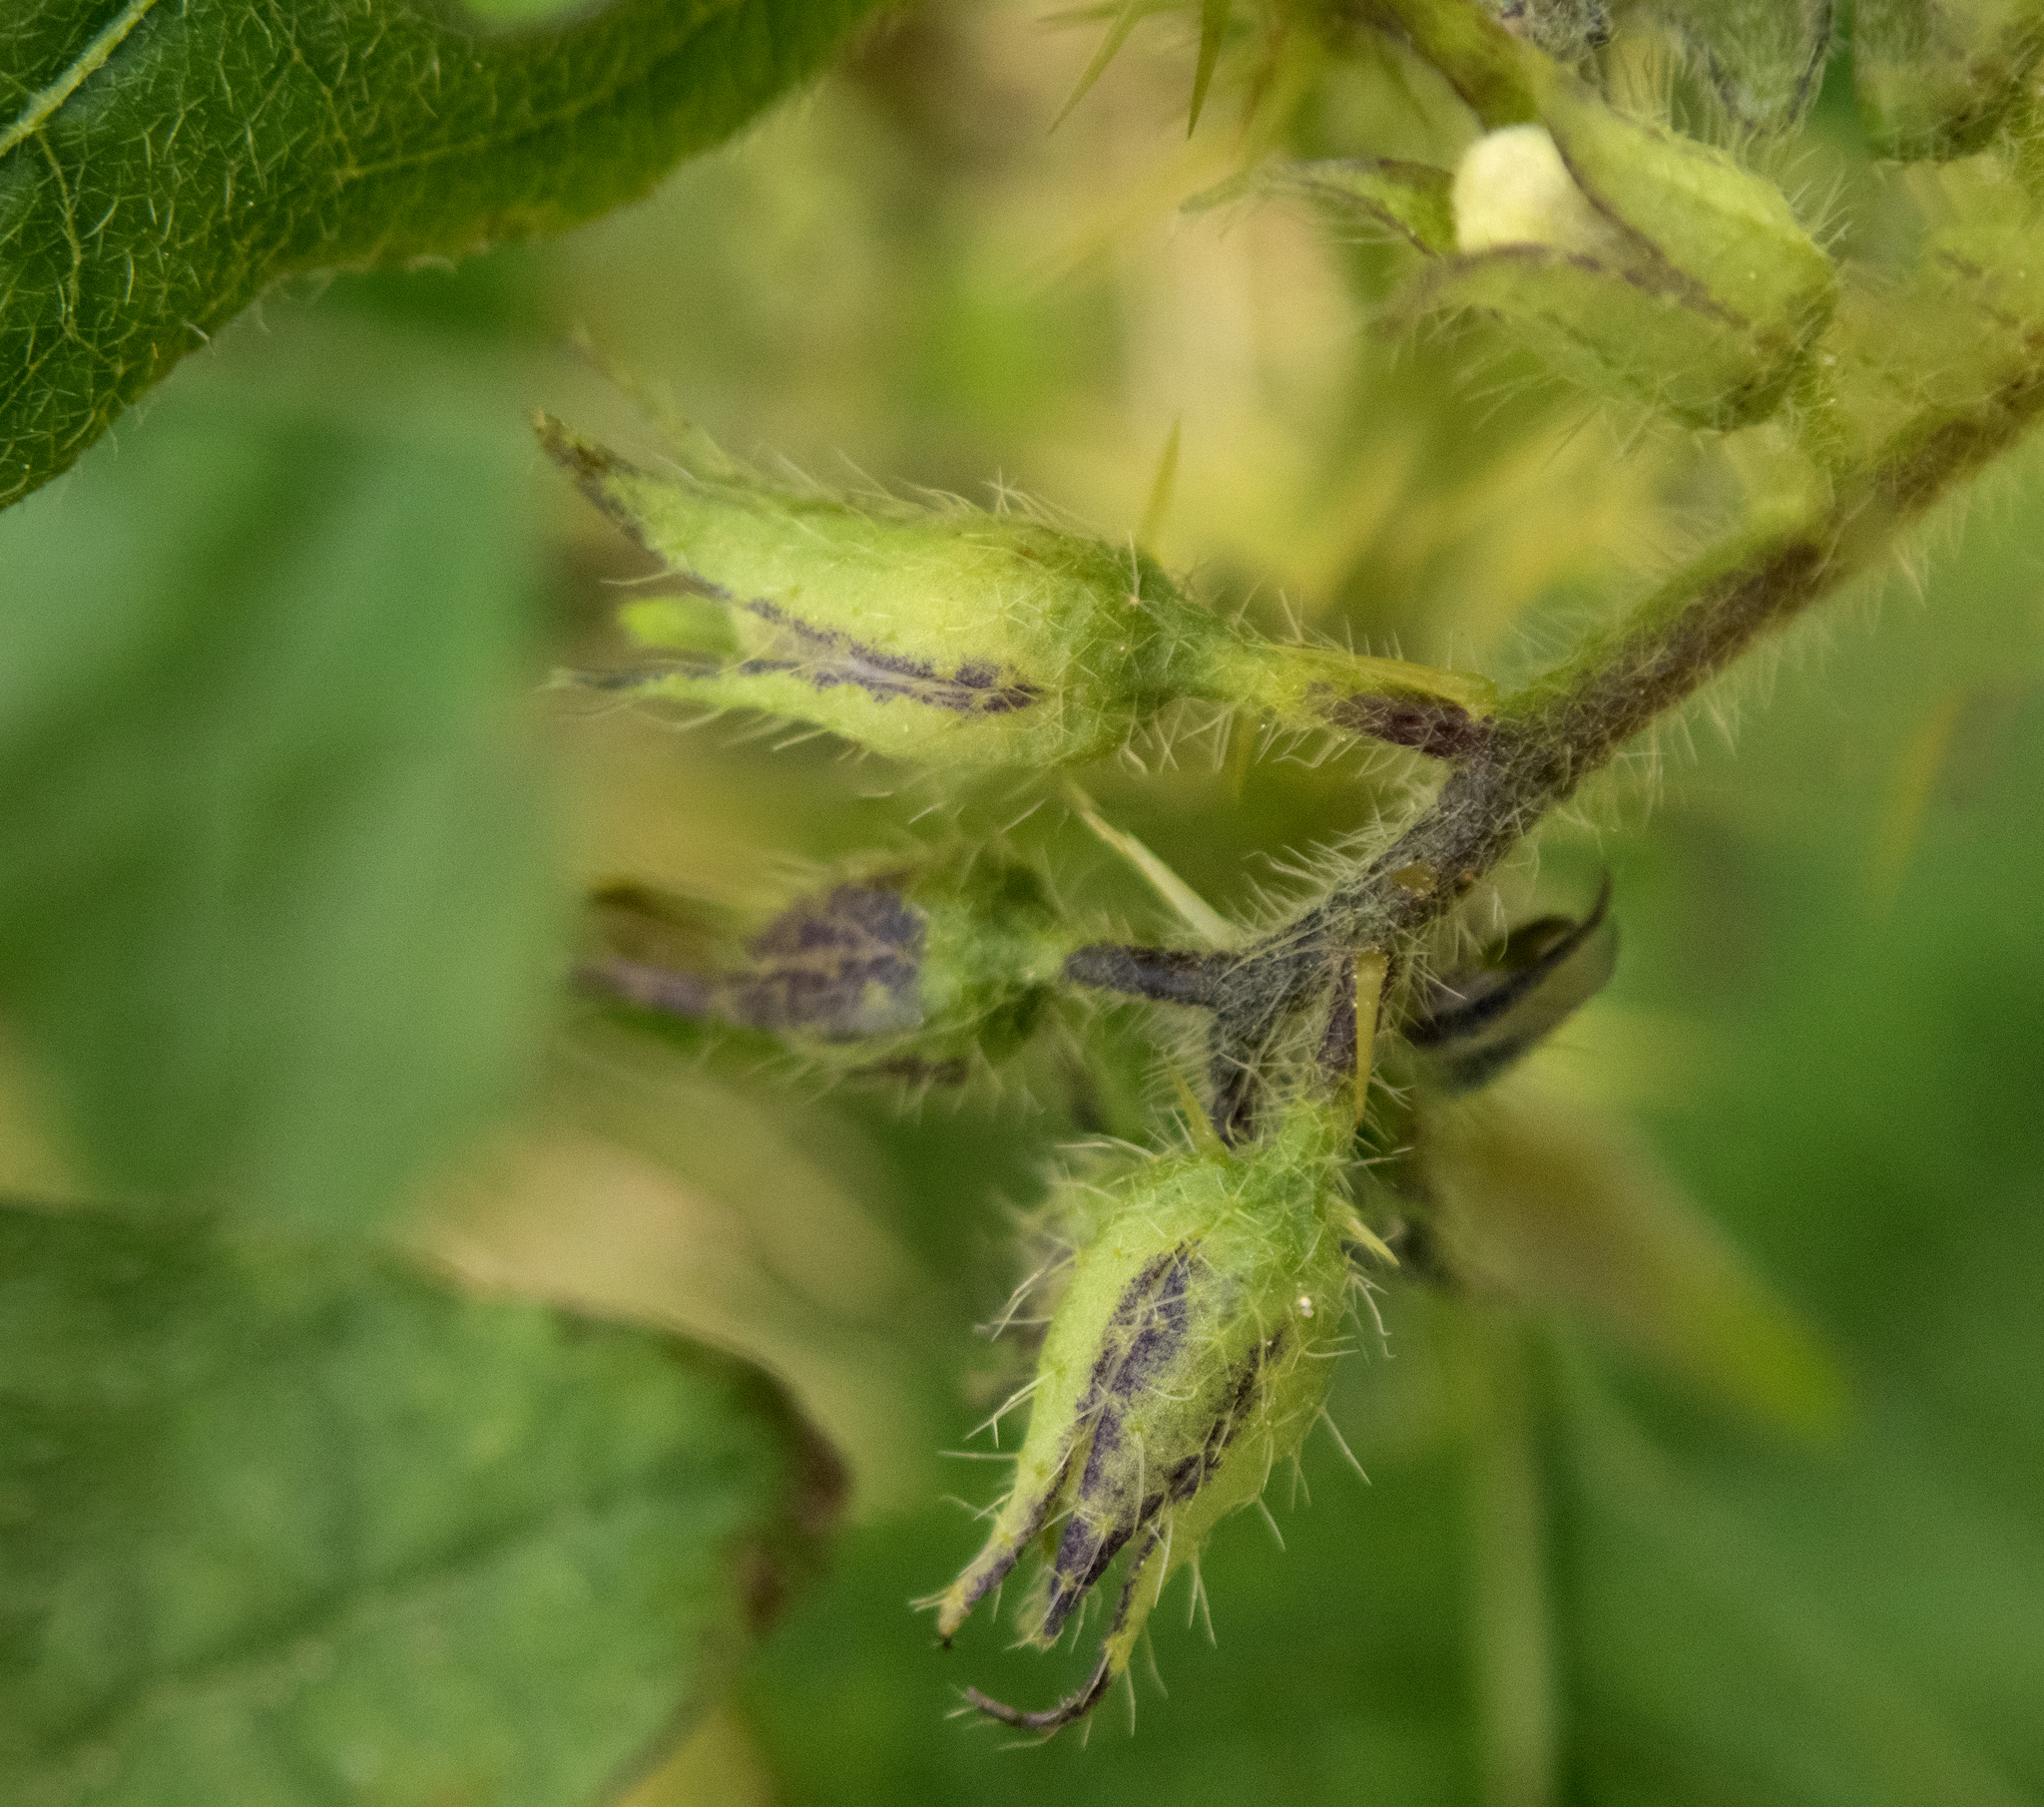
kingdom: Plantae
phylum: Tracheophyta
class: Magnoliopsida
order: Solanales
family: Solanaceae
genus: Solanum
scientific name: Solanum carolinense
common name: Horse-nettle
